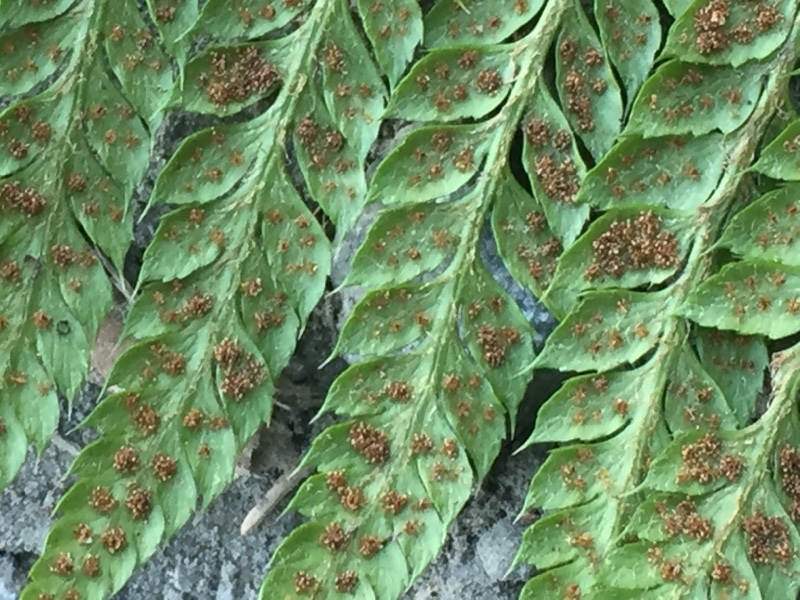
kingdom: Plantae
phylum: Tracheophyta
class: Polypodiopsida
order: Polypodiales
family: Dryopteridaceae
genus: Polystichum
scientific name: Polystichum aculeatum
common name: Hard shield-fern
